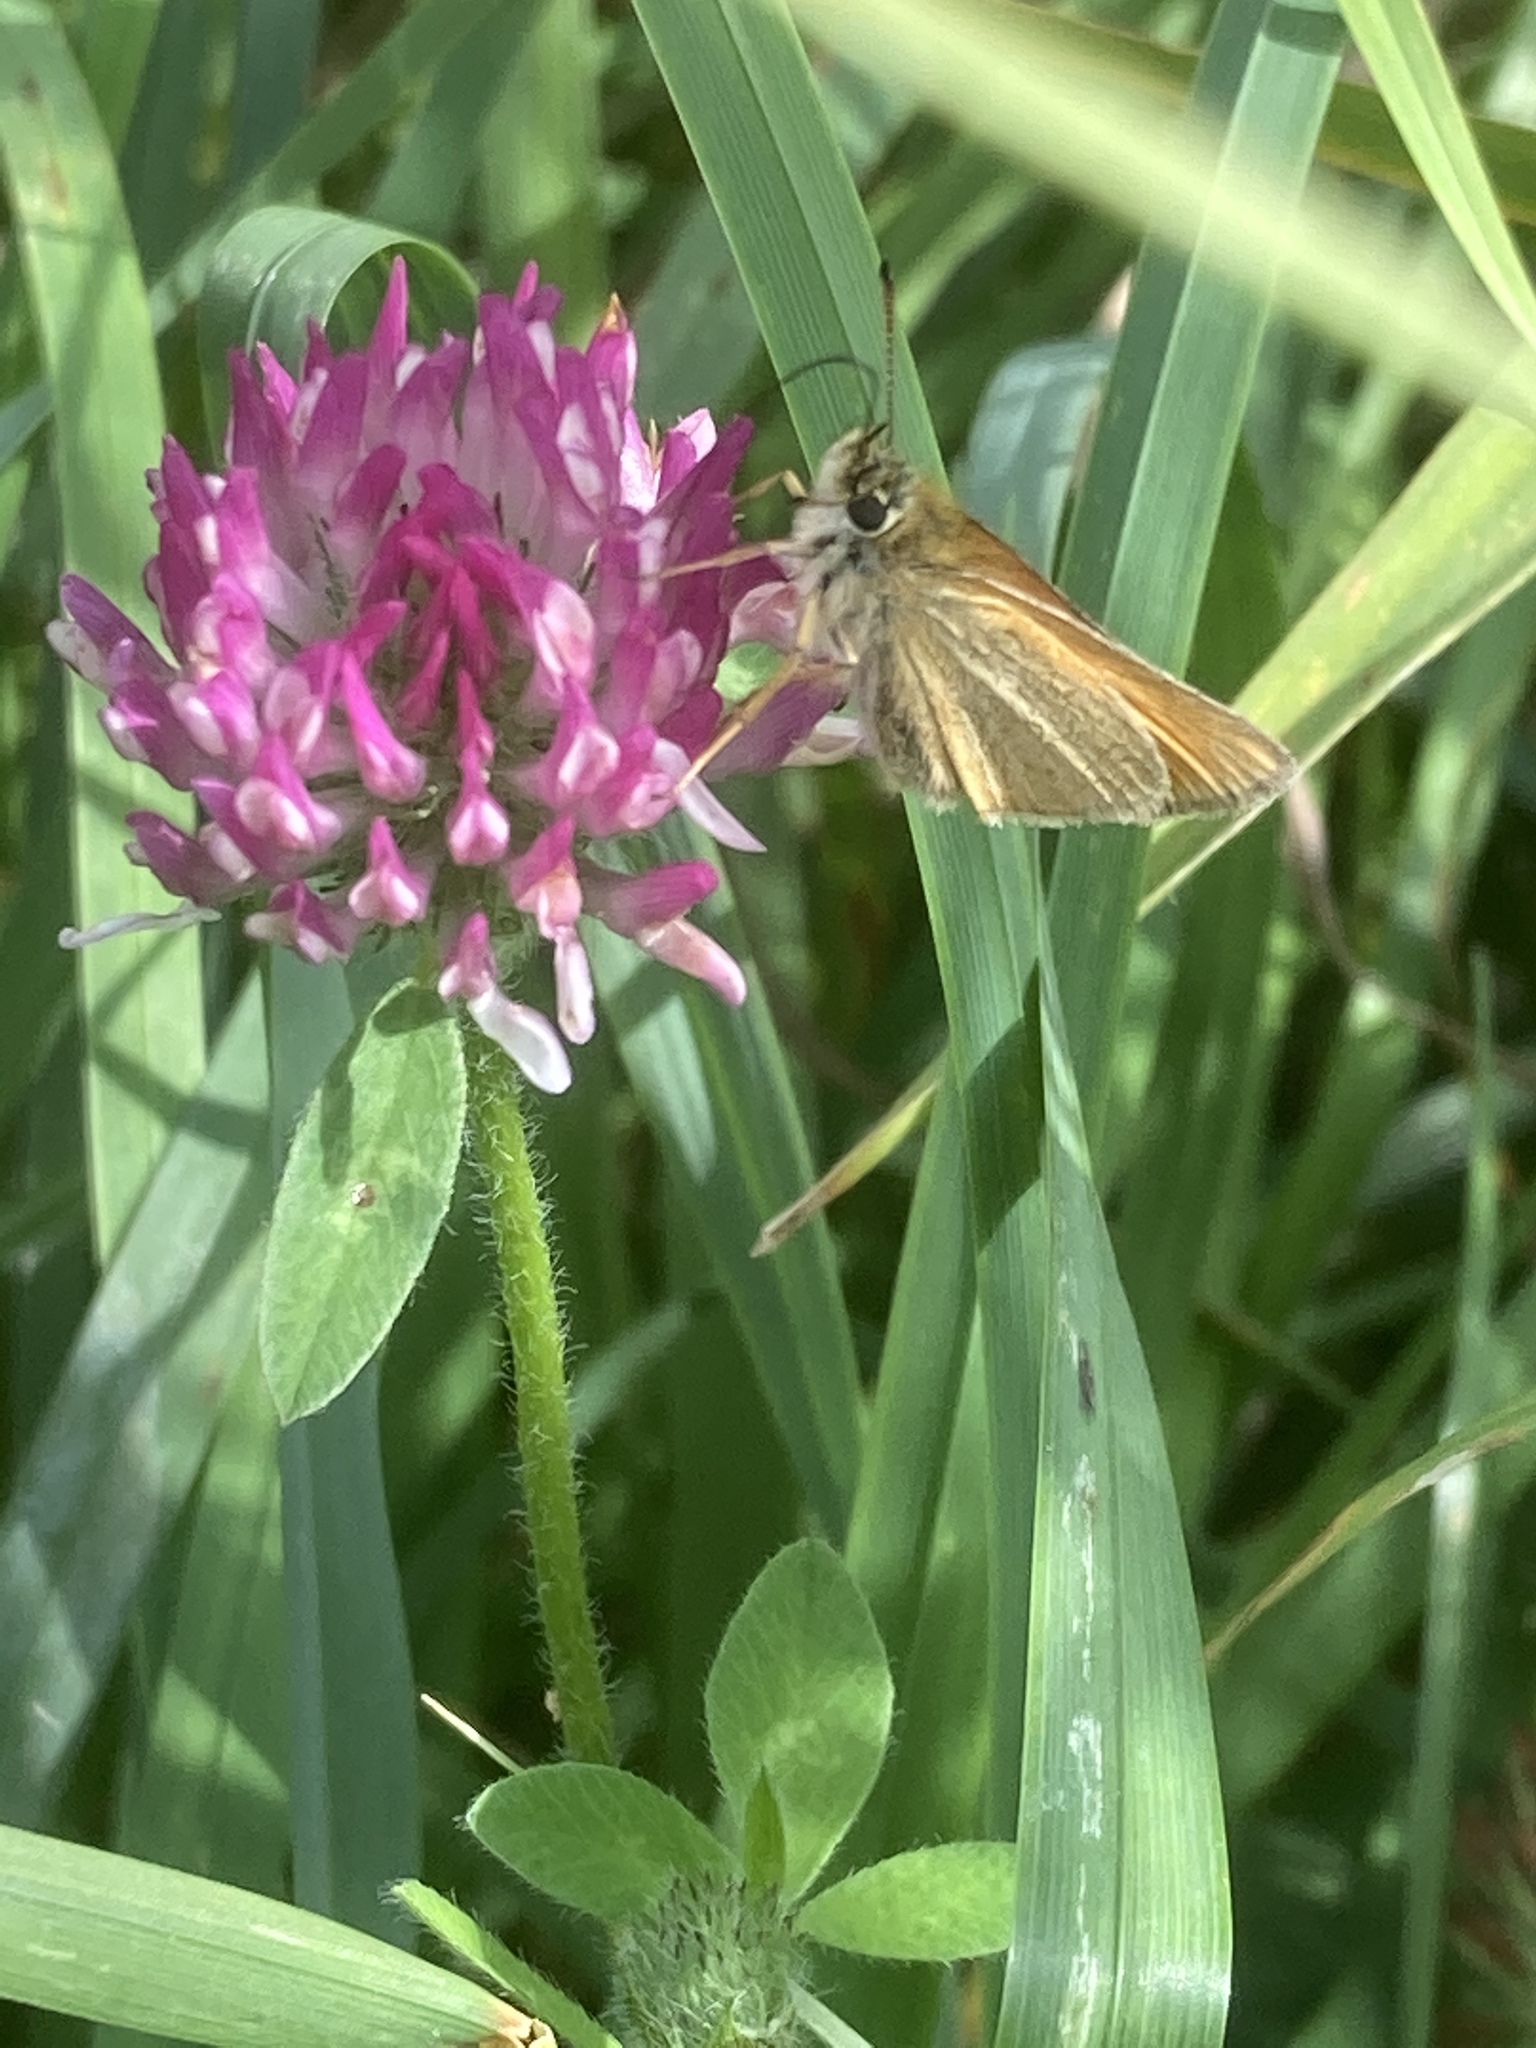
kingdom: Animalia
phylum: Arthropoda
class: Insecta
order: Lepidoptera
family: Hesperiidae
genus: Thymelicus
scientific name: Thymelicus lineola
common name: Essex skipper
